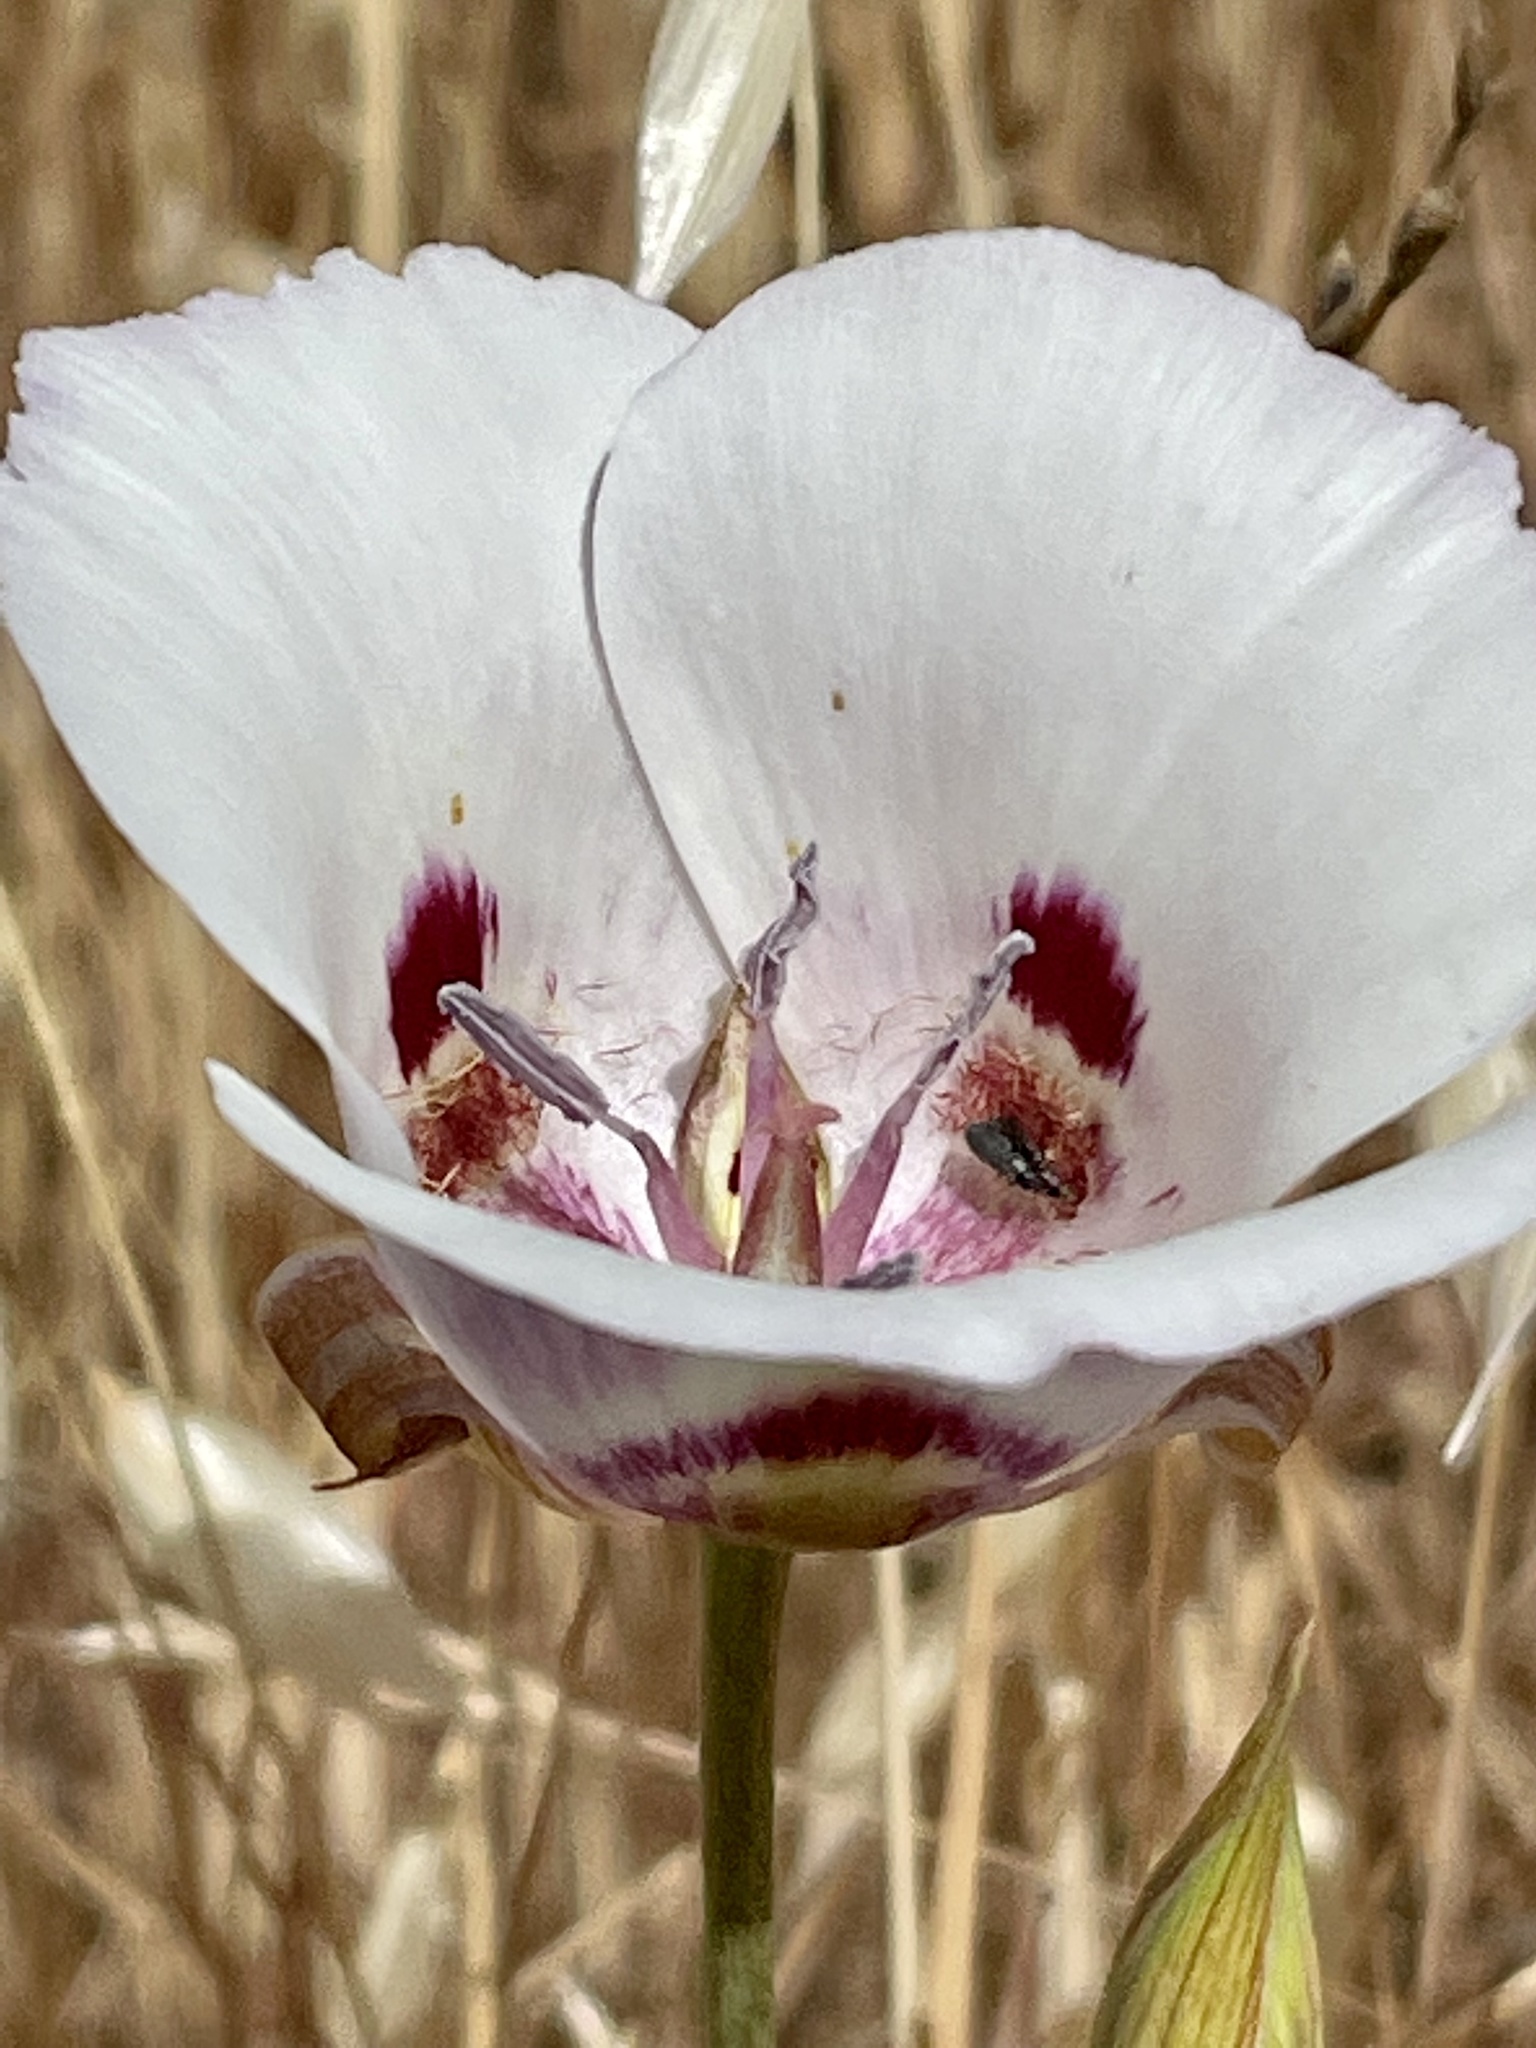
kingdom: Plantae
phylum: Tracheophyta
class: Liliopsida
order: Liliales
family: Liliaceae
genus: Calochortus
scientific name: Calochortus argillosus
